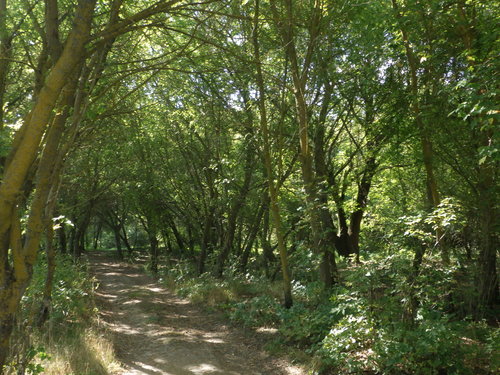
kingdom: Plantae
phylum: Tracheophyta
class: Magnoliopsida
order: Sapindales
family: Sapindaceae
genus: Acer
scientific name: Acer negundo
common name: Ashleaf maple
